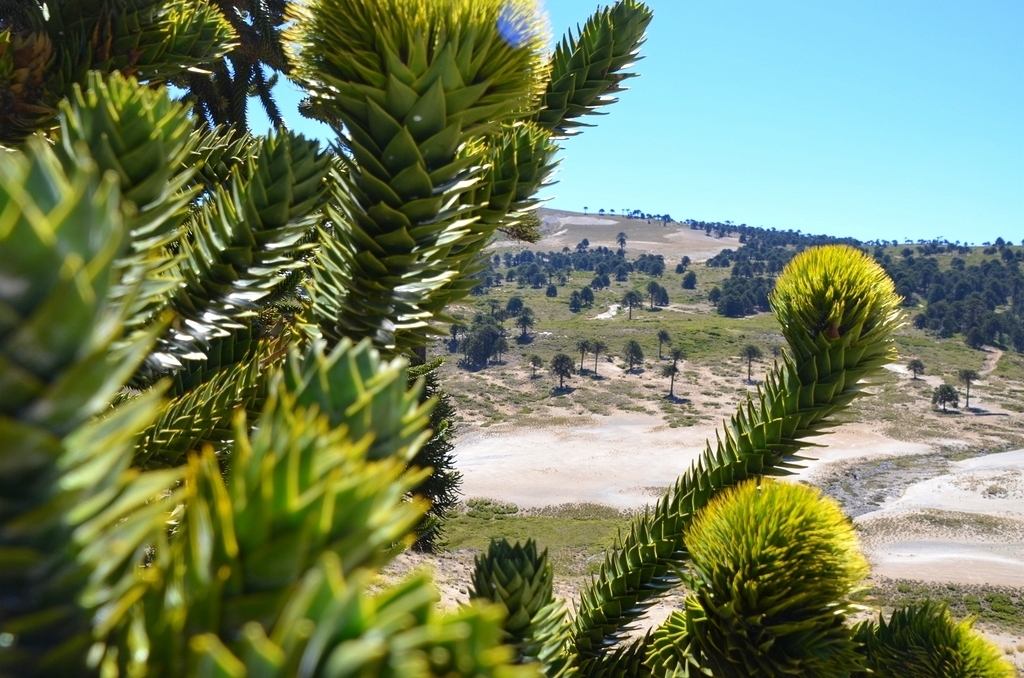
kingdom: Plantae
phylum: Tracheophyta
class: Pinopsida
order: Pinales
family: Araucariaceae
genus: Araucaria
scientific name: Araucaria araucana
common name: Monkey-puzzle
